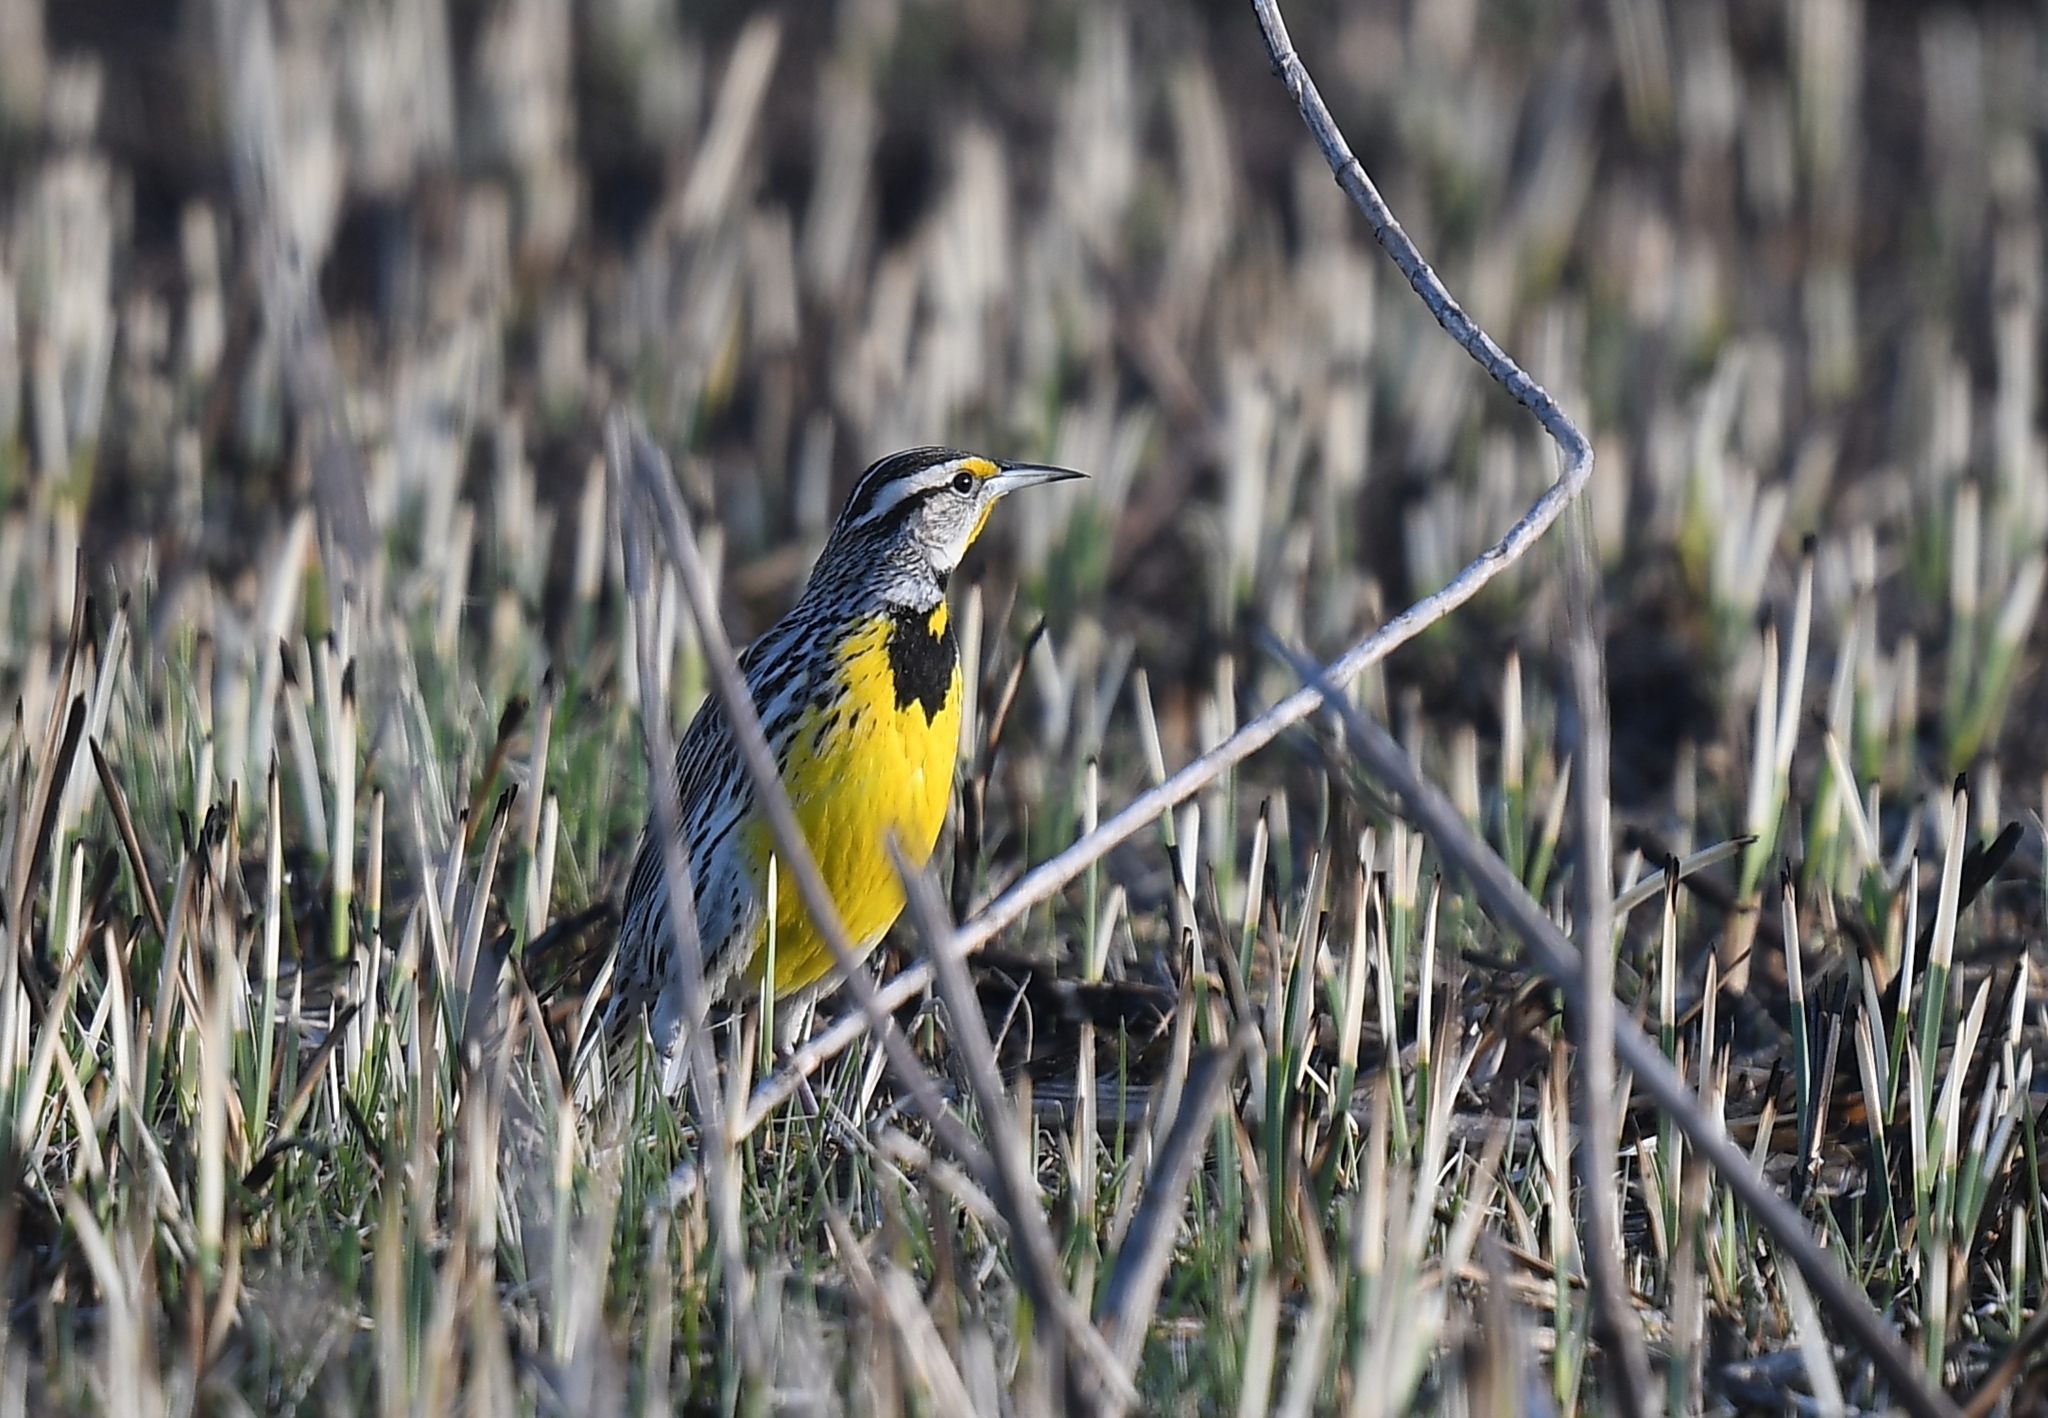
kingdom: Animalia
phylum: Chordata
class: Aves
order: Passeriformes
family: Icteridae
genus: Sturnella
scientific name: Sturnella magna
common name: Eastern meadowlark
